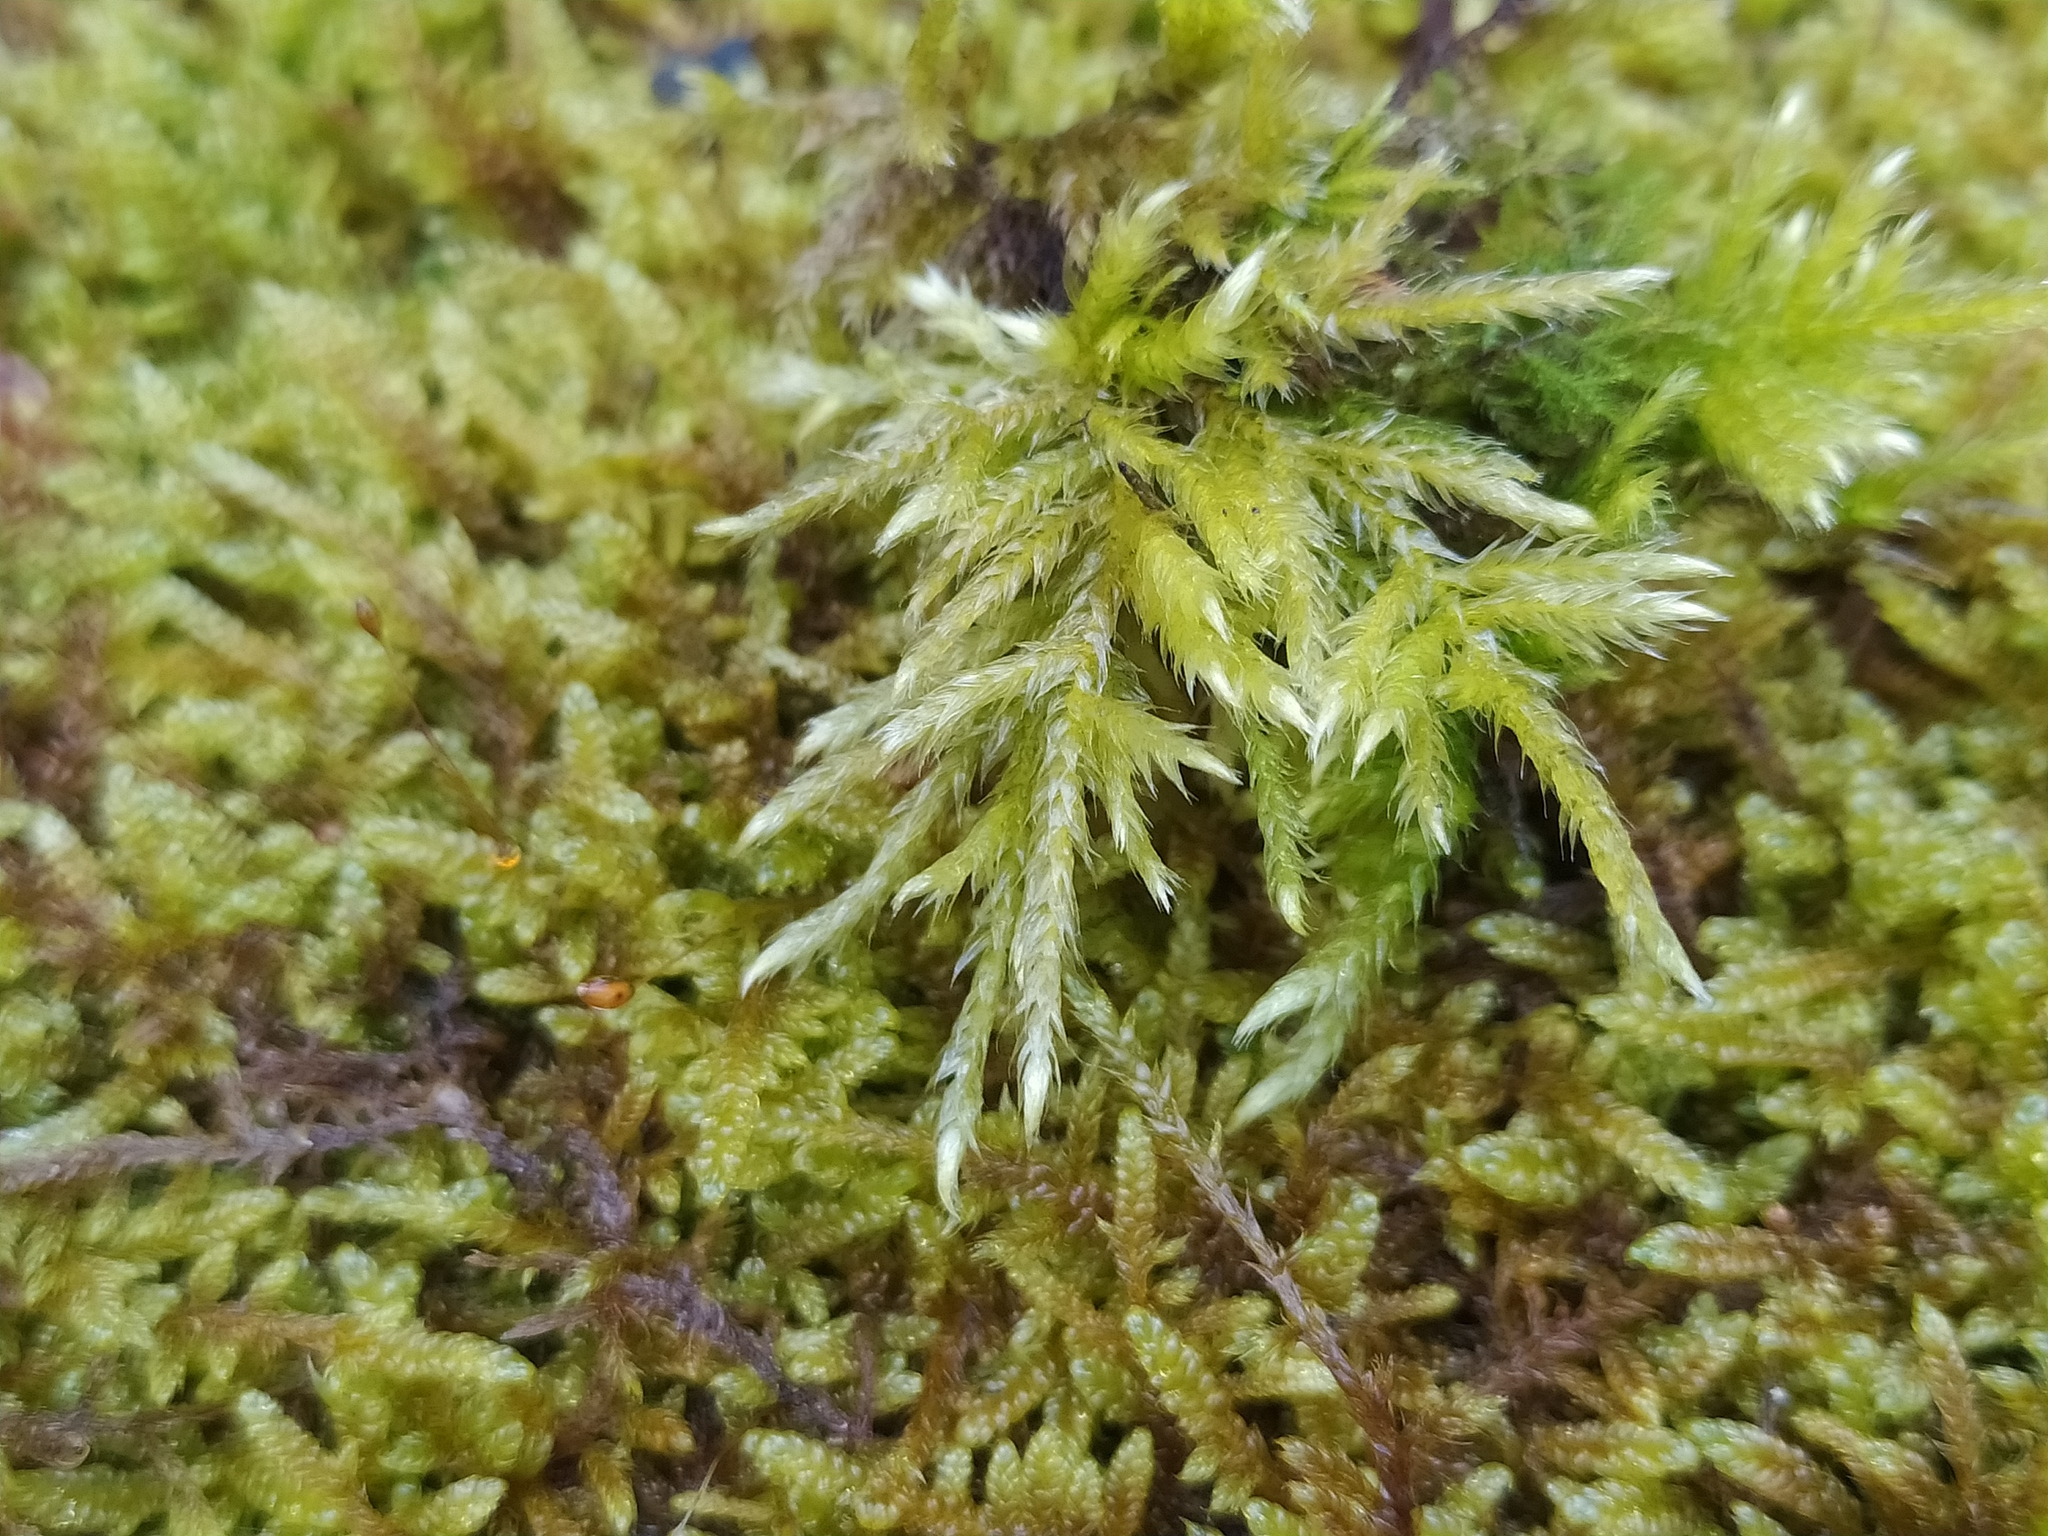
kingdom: Plantae
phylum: Bryophyta
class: Bryopsida
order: Hypnales
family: Brachytheciaceae
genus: Brachythecium
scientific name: Brachythecium salebrosum
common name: Smooth-stalk feather-moss
